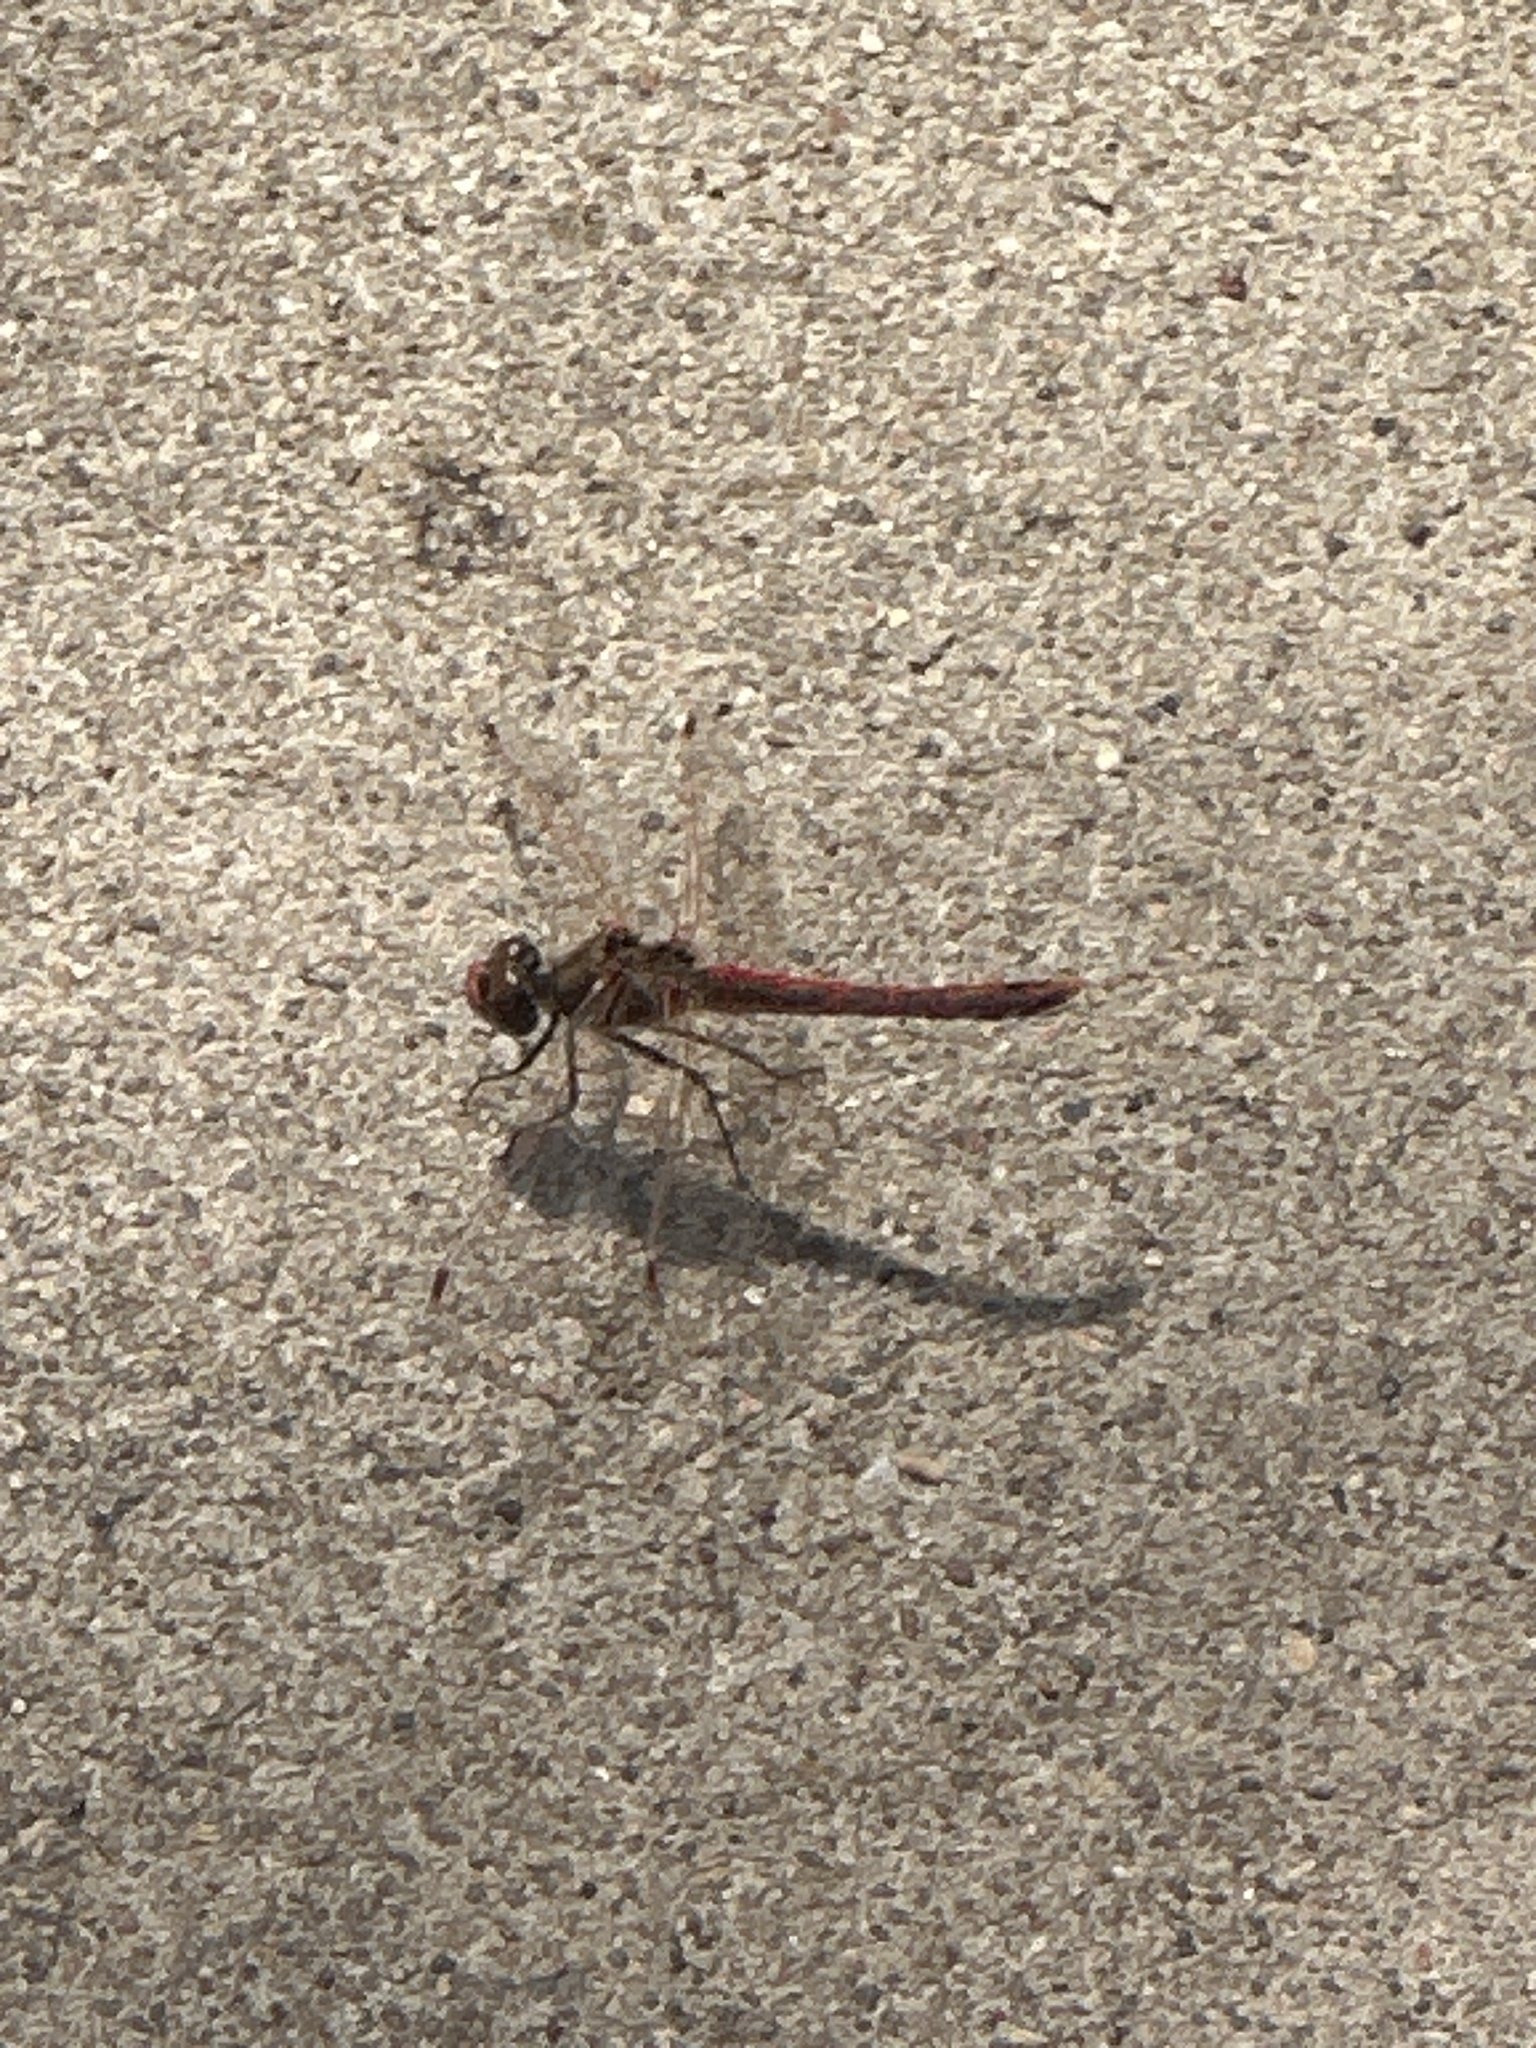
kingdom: Animalia
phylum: Arthropoda
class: Insecta
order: Odonata
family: Libellulidae
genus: Sympetrum
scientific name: Sympetrum corruptum
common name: Variegated meadowhawk
